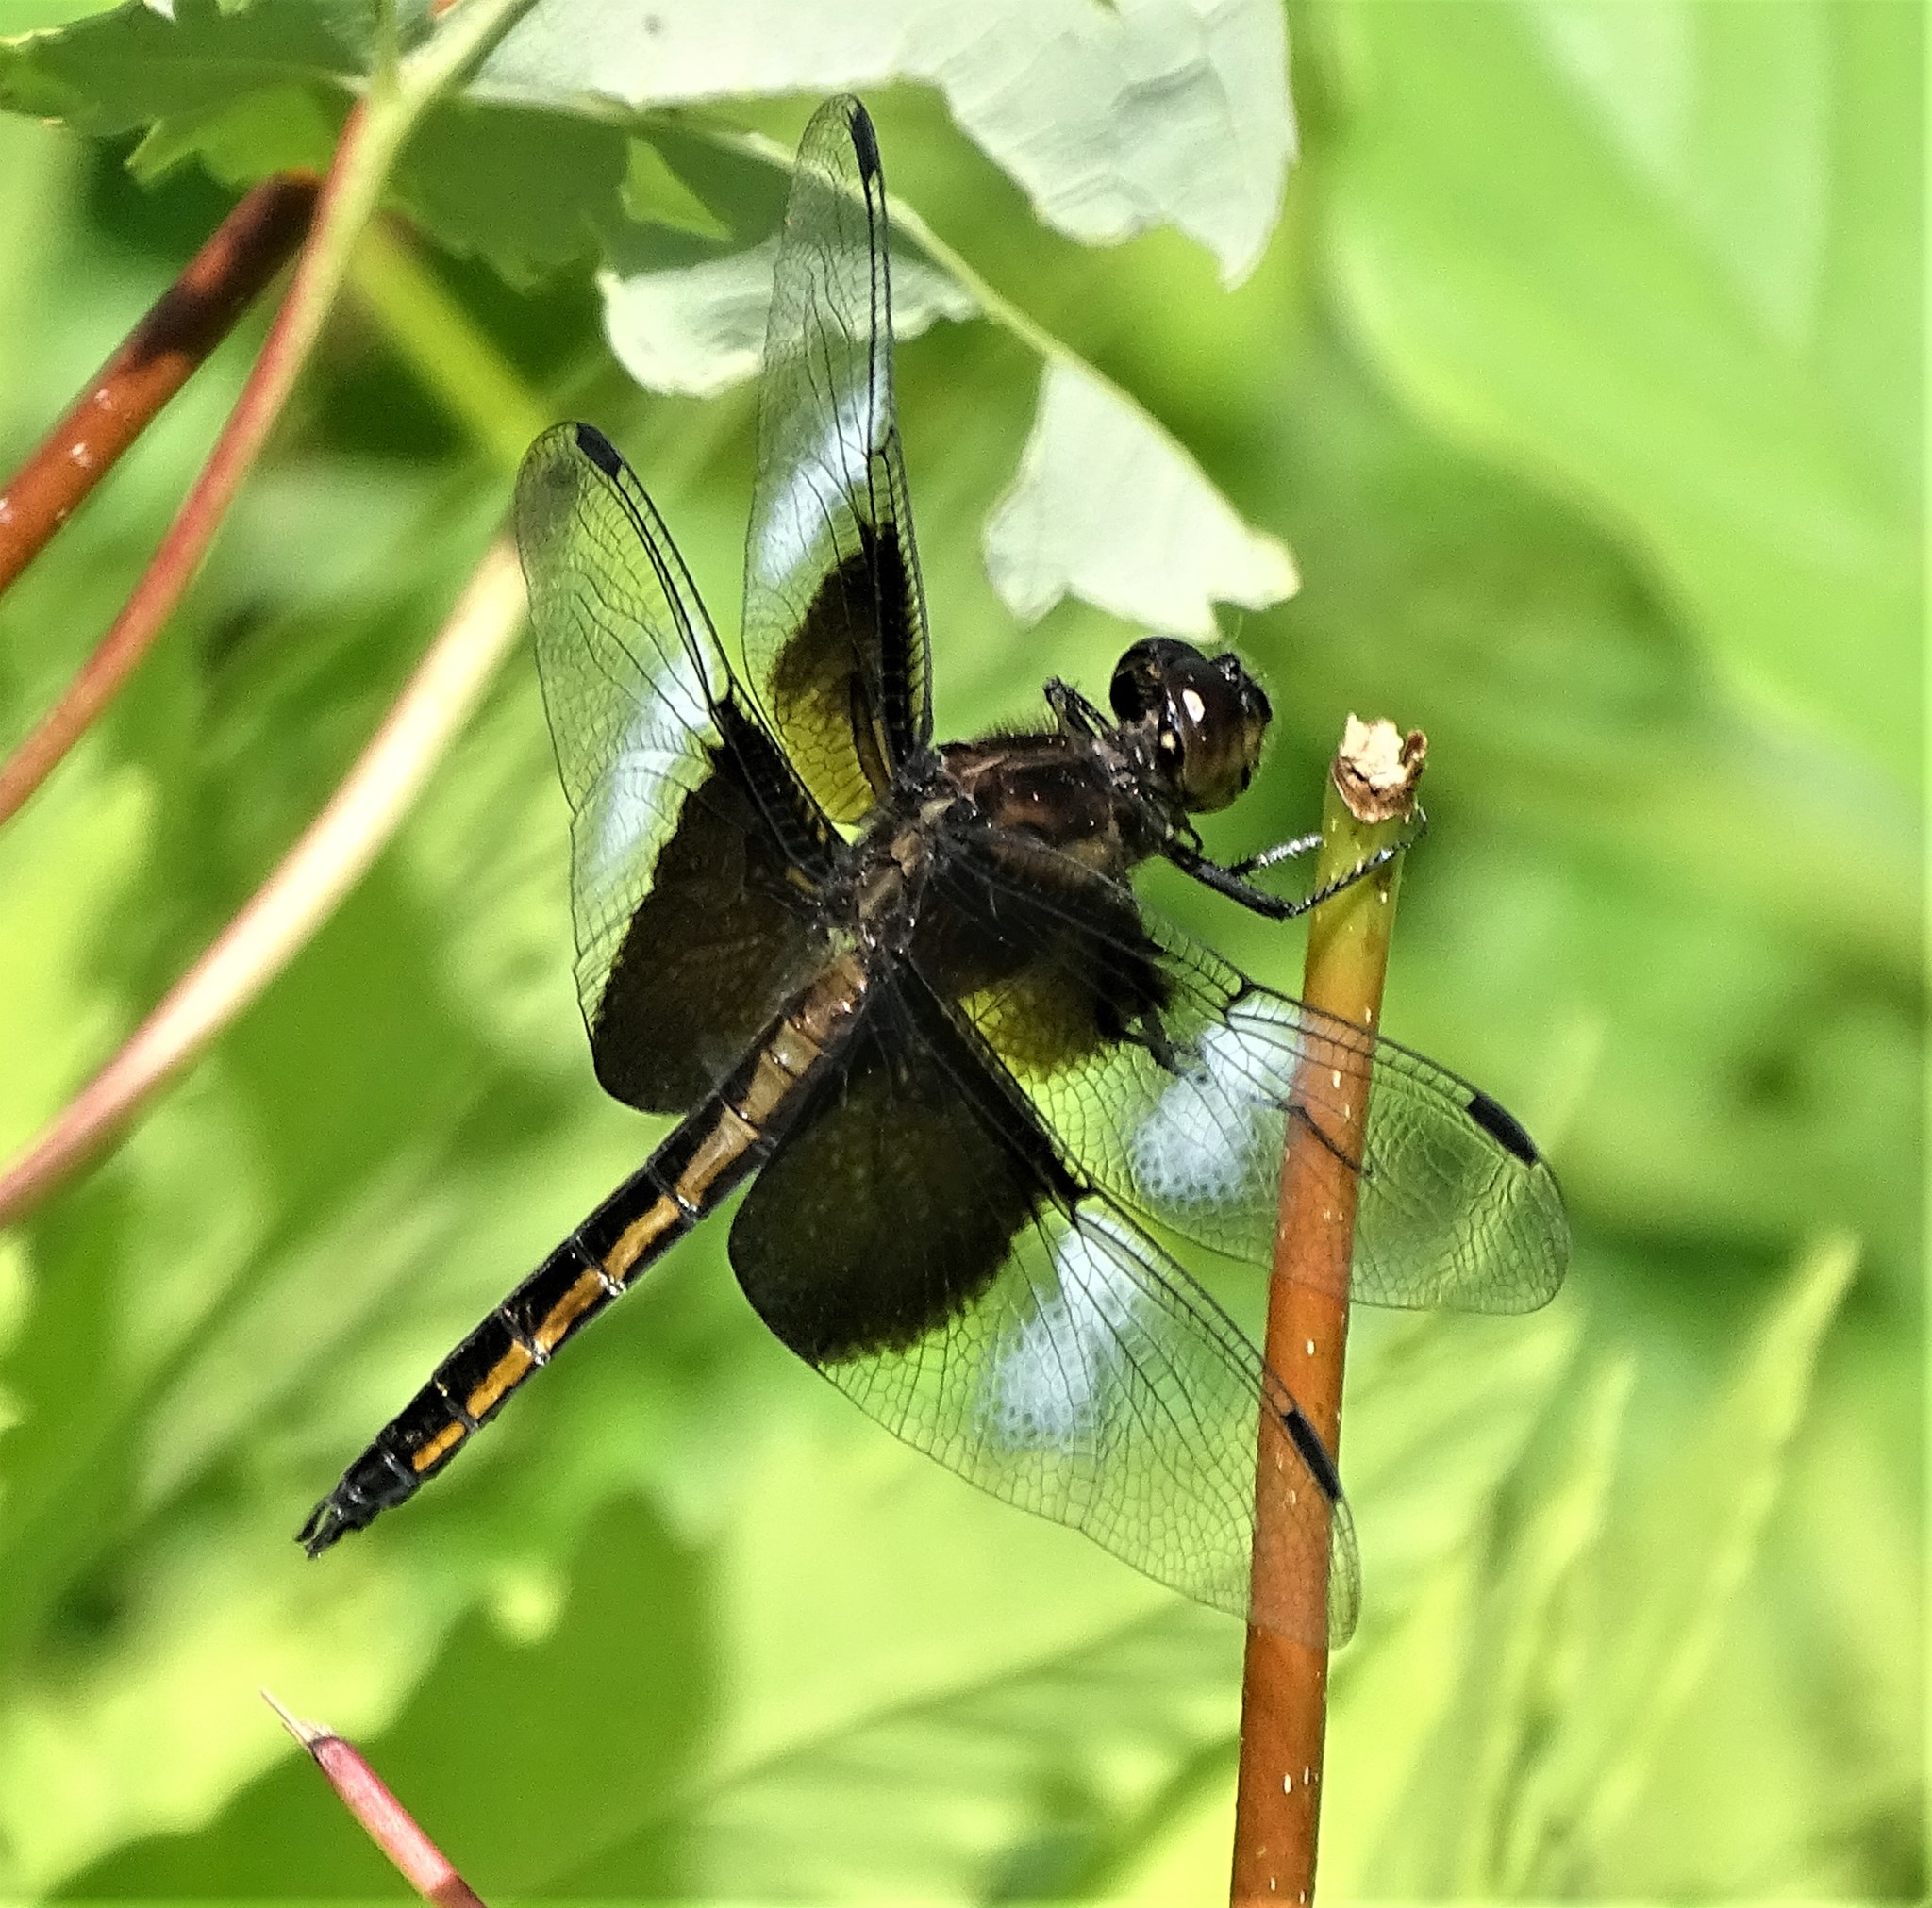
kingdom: Animalia
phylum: Arthropoda
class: Insecta
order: Odonata
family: Libellulidae
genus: Libellula
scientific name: Libellula luctuosa
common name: Widow skimmer
